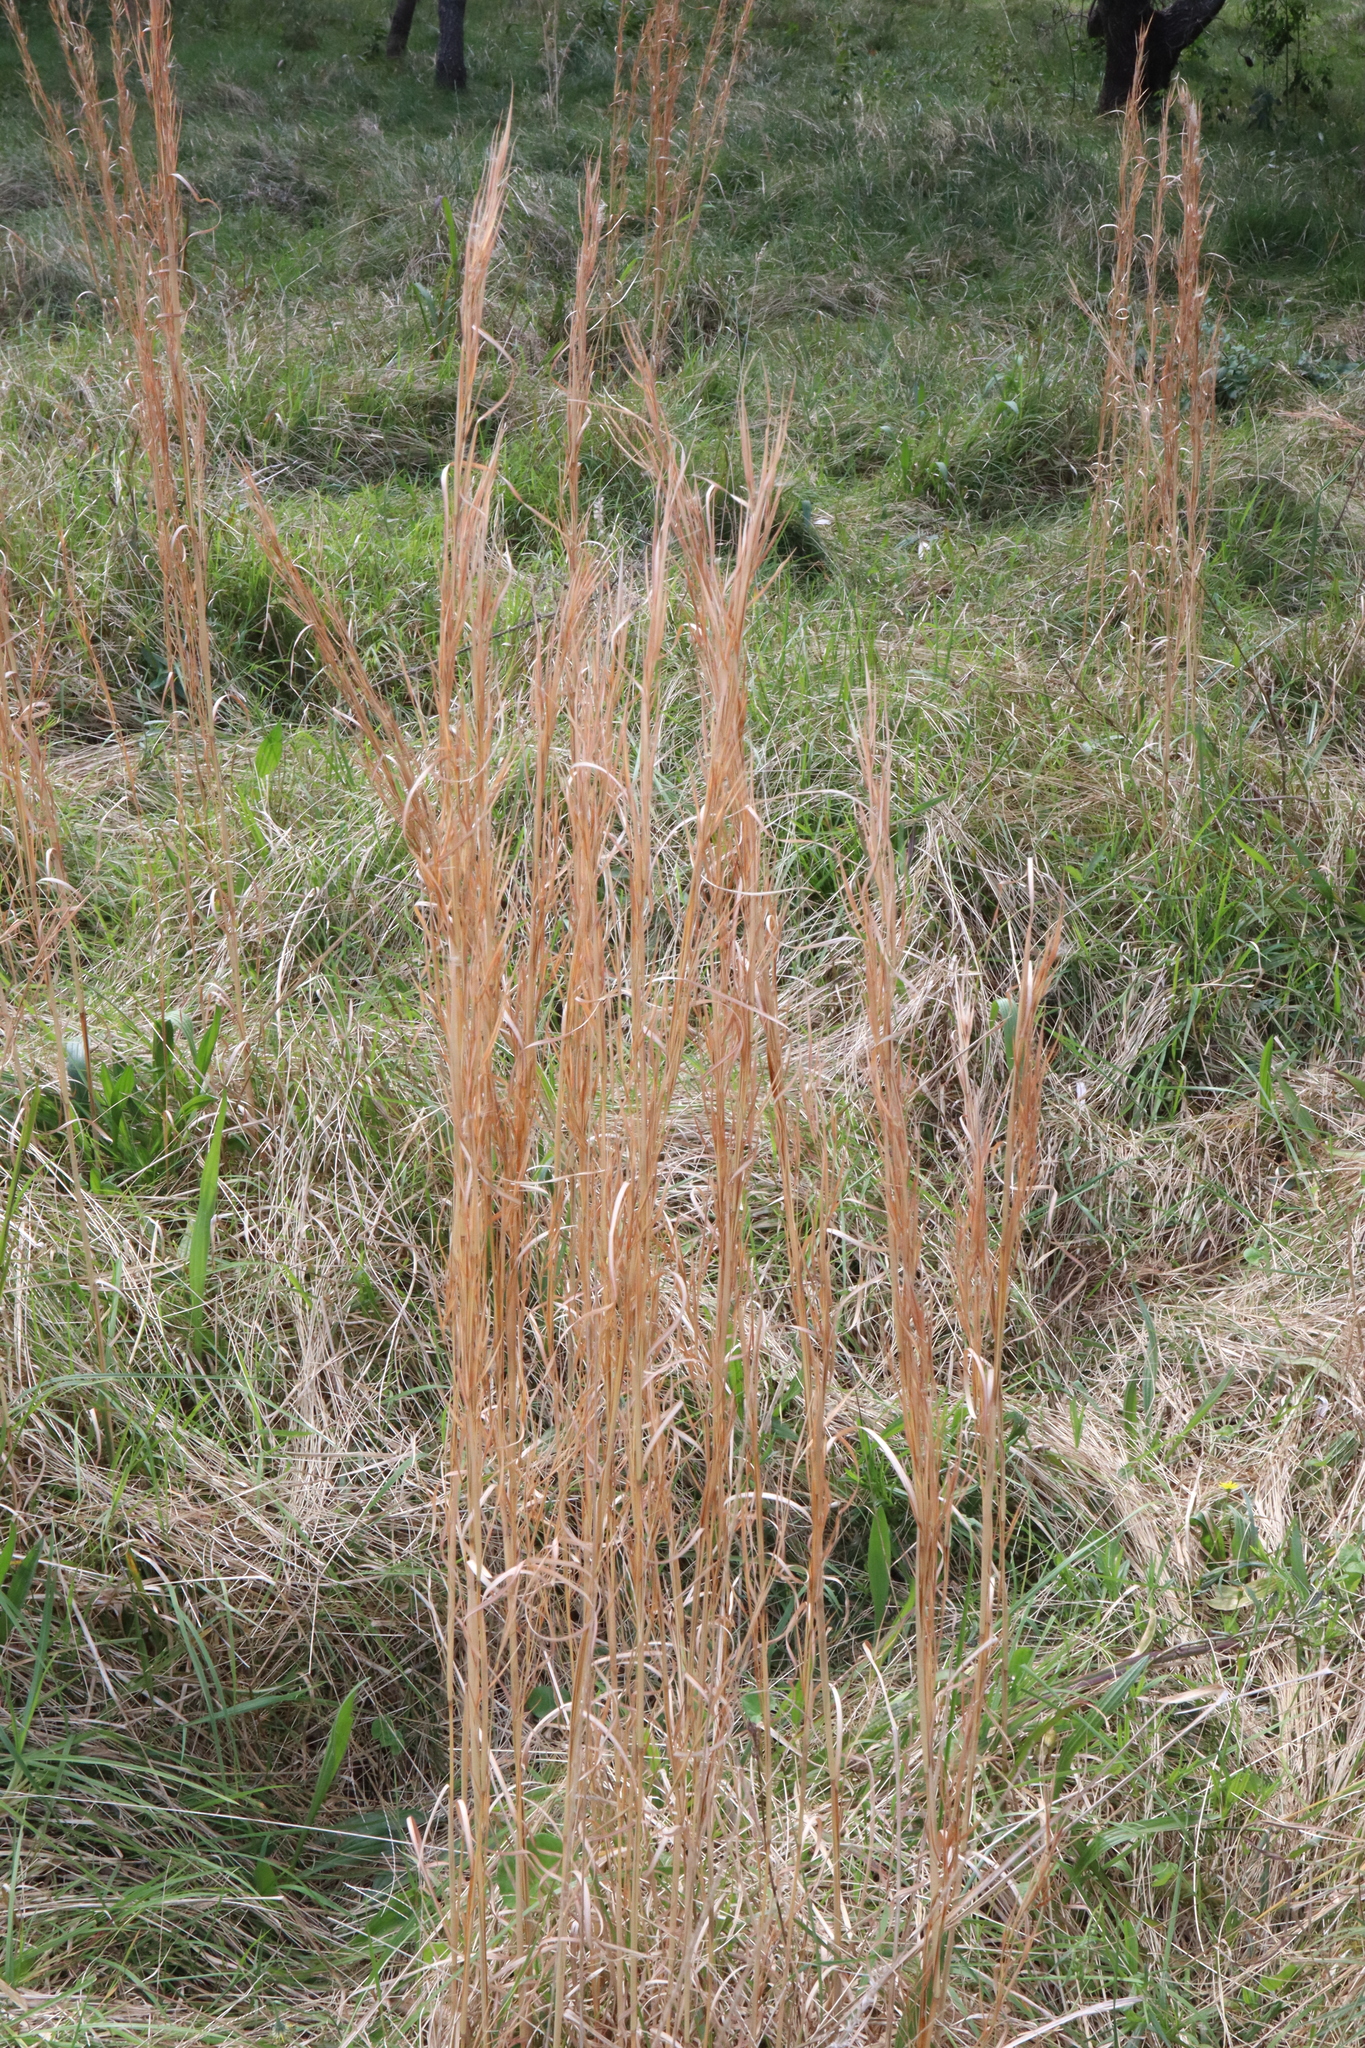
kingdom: Plantae
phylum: Tracheophyta
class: Liliopsida
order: Poales
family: Poaceae
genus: Andropogon
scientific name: Andropogon virginicus
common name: Broomsedge bluestem
